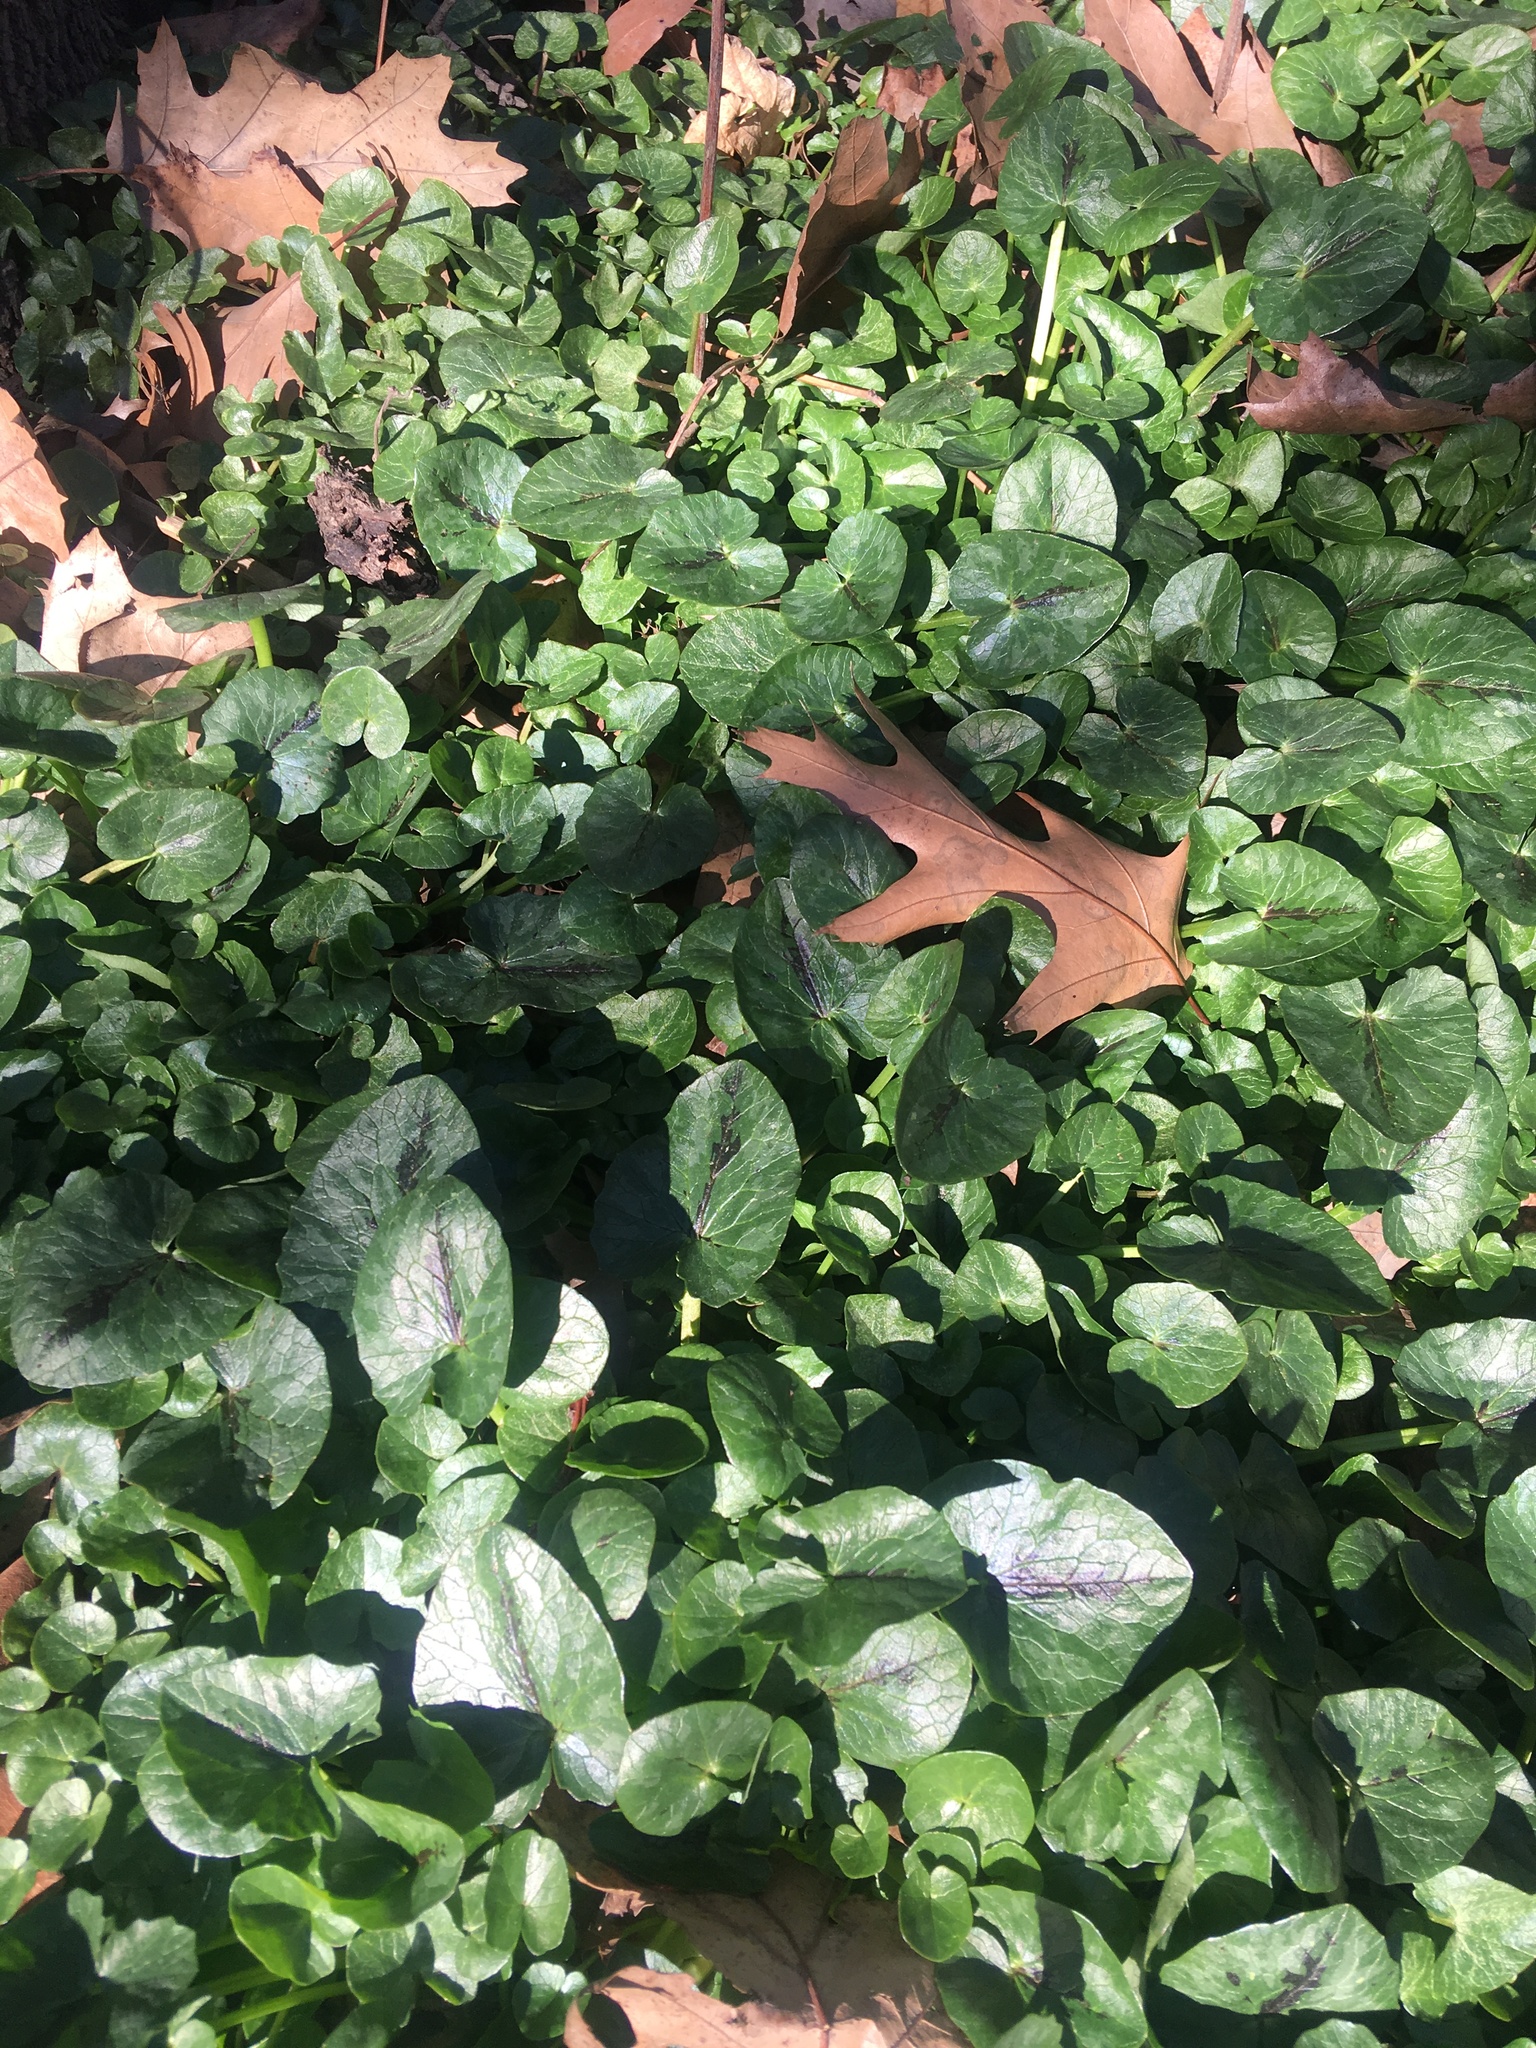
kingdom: Plantae
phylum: Tracheophyta
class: Magnoliopsida
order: Ranunculales
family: Ranunculaceae
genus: Ficaria
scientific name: Ficaria verna
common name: Lesser celandine
